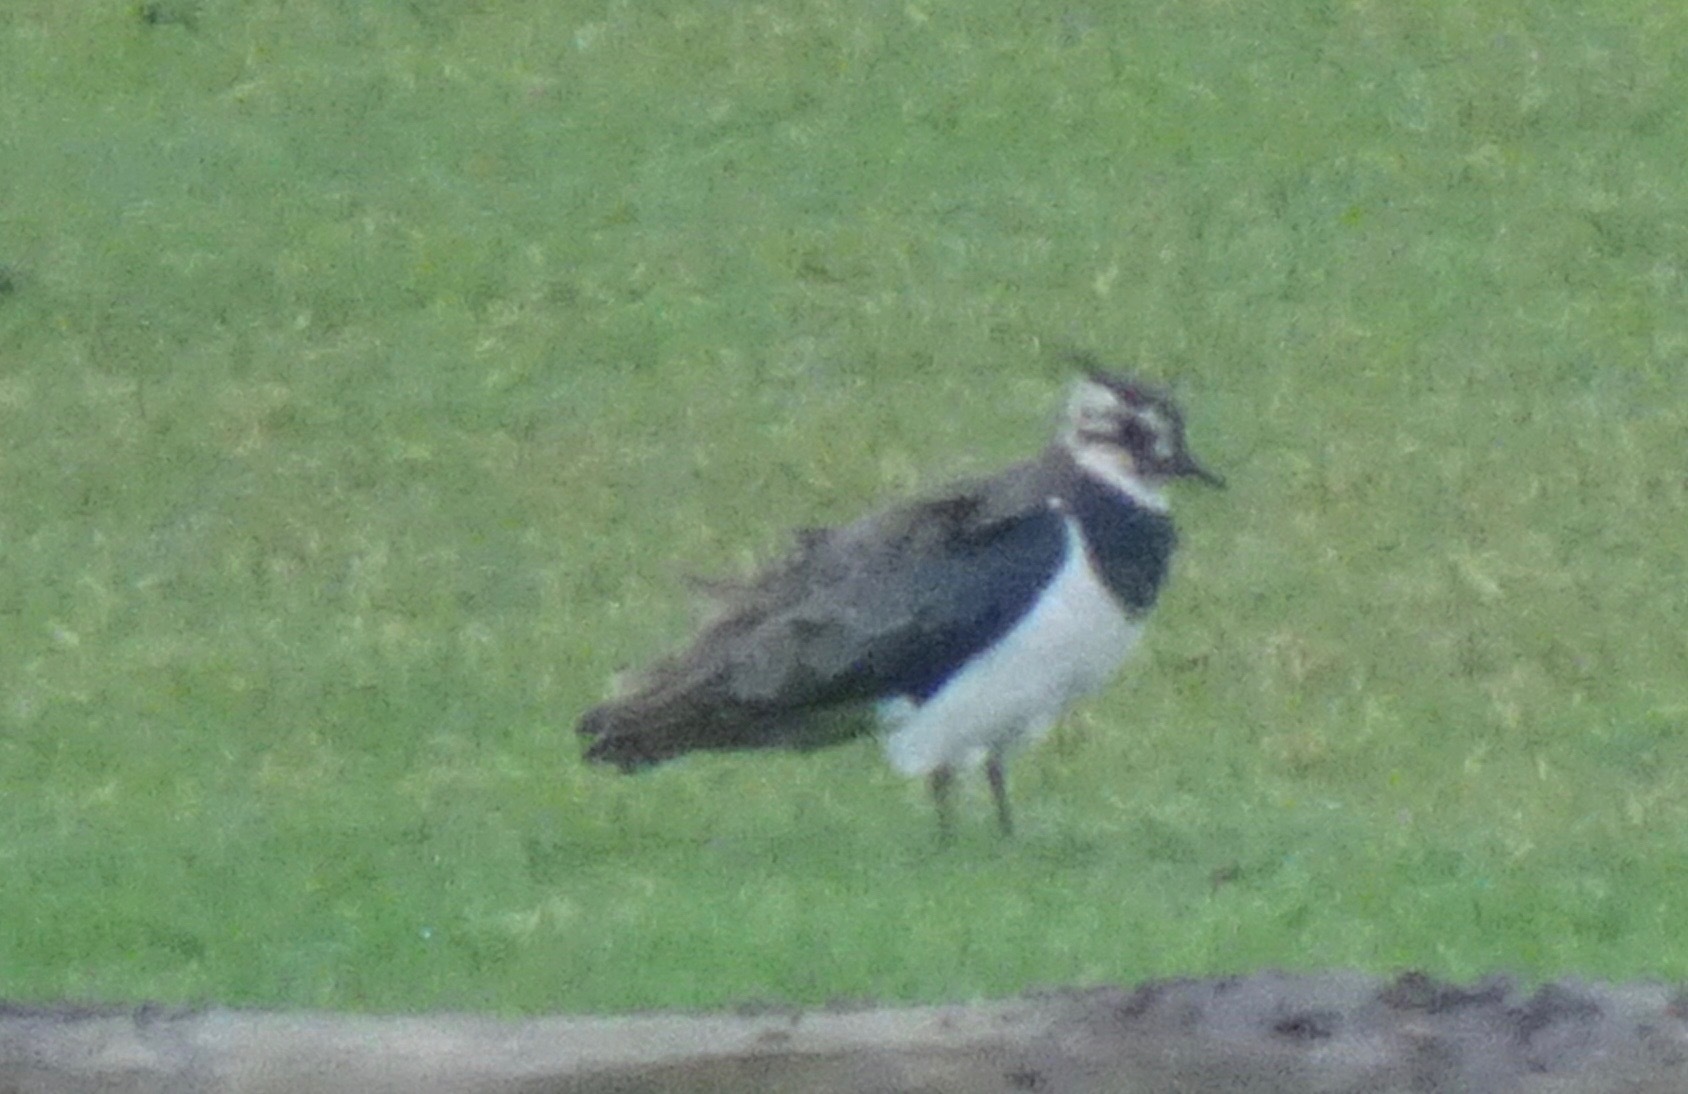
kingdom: Animalia
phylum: Chordata
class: Aves
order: Charadriiformes
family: Charadriidae
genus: Vanellus
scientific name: Vanellus vanellus
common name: Northern lapwing
